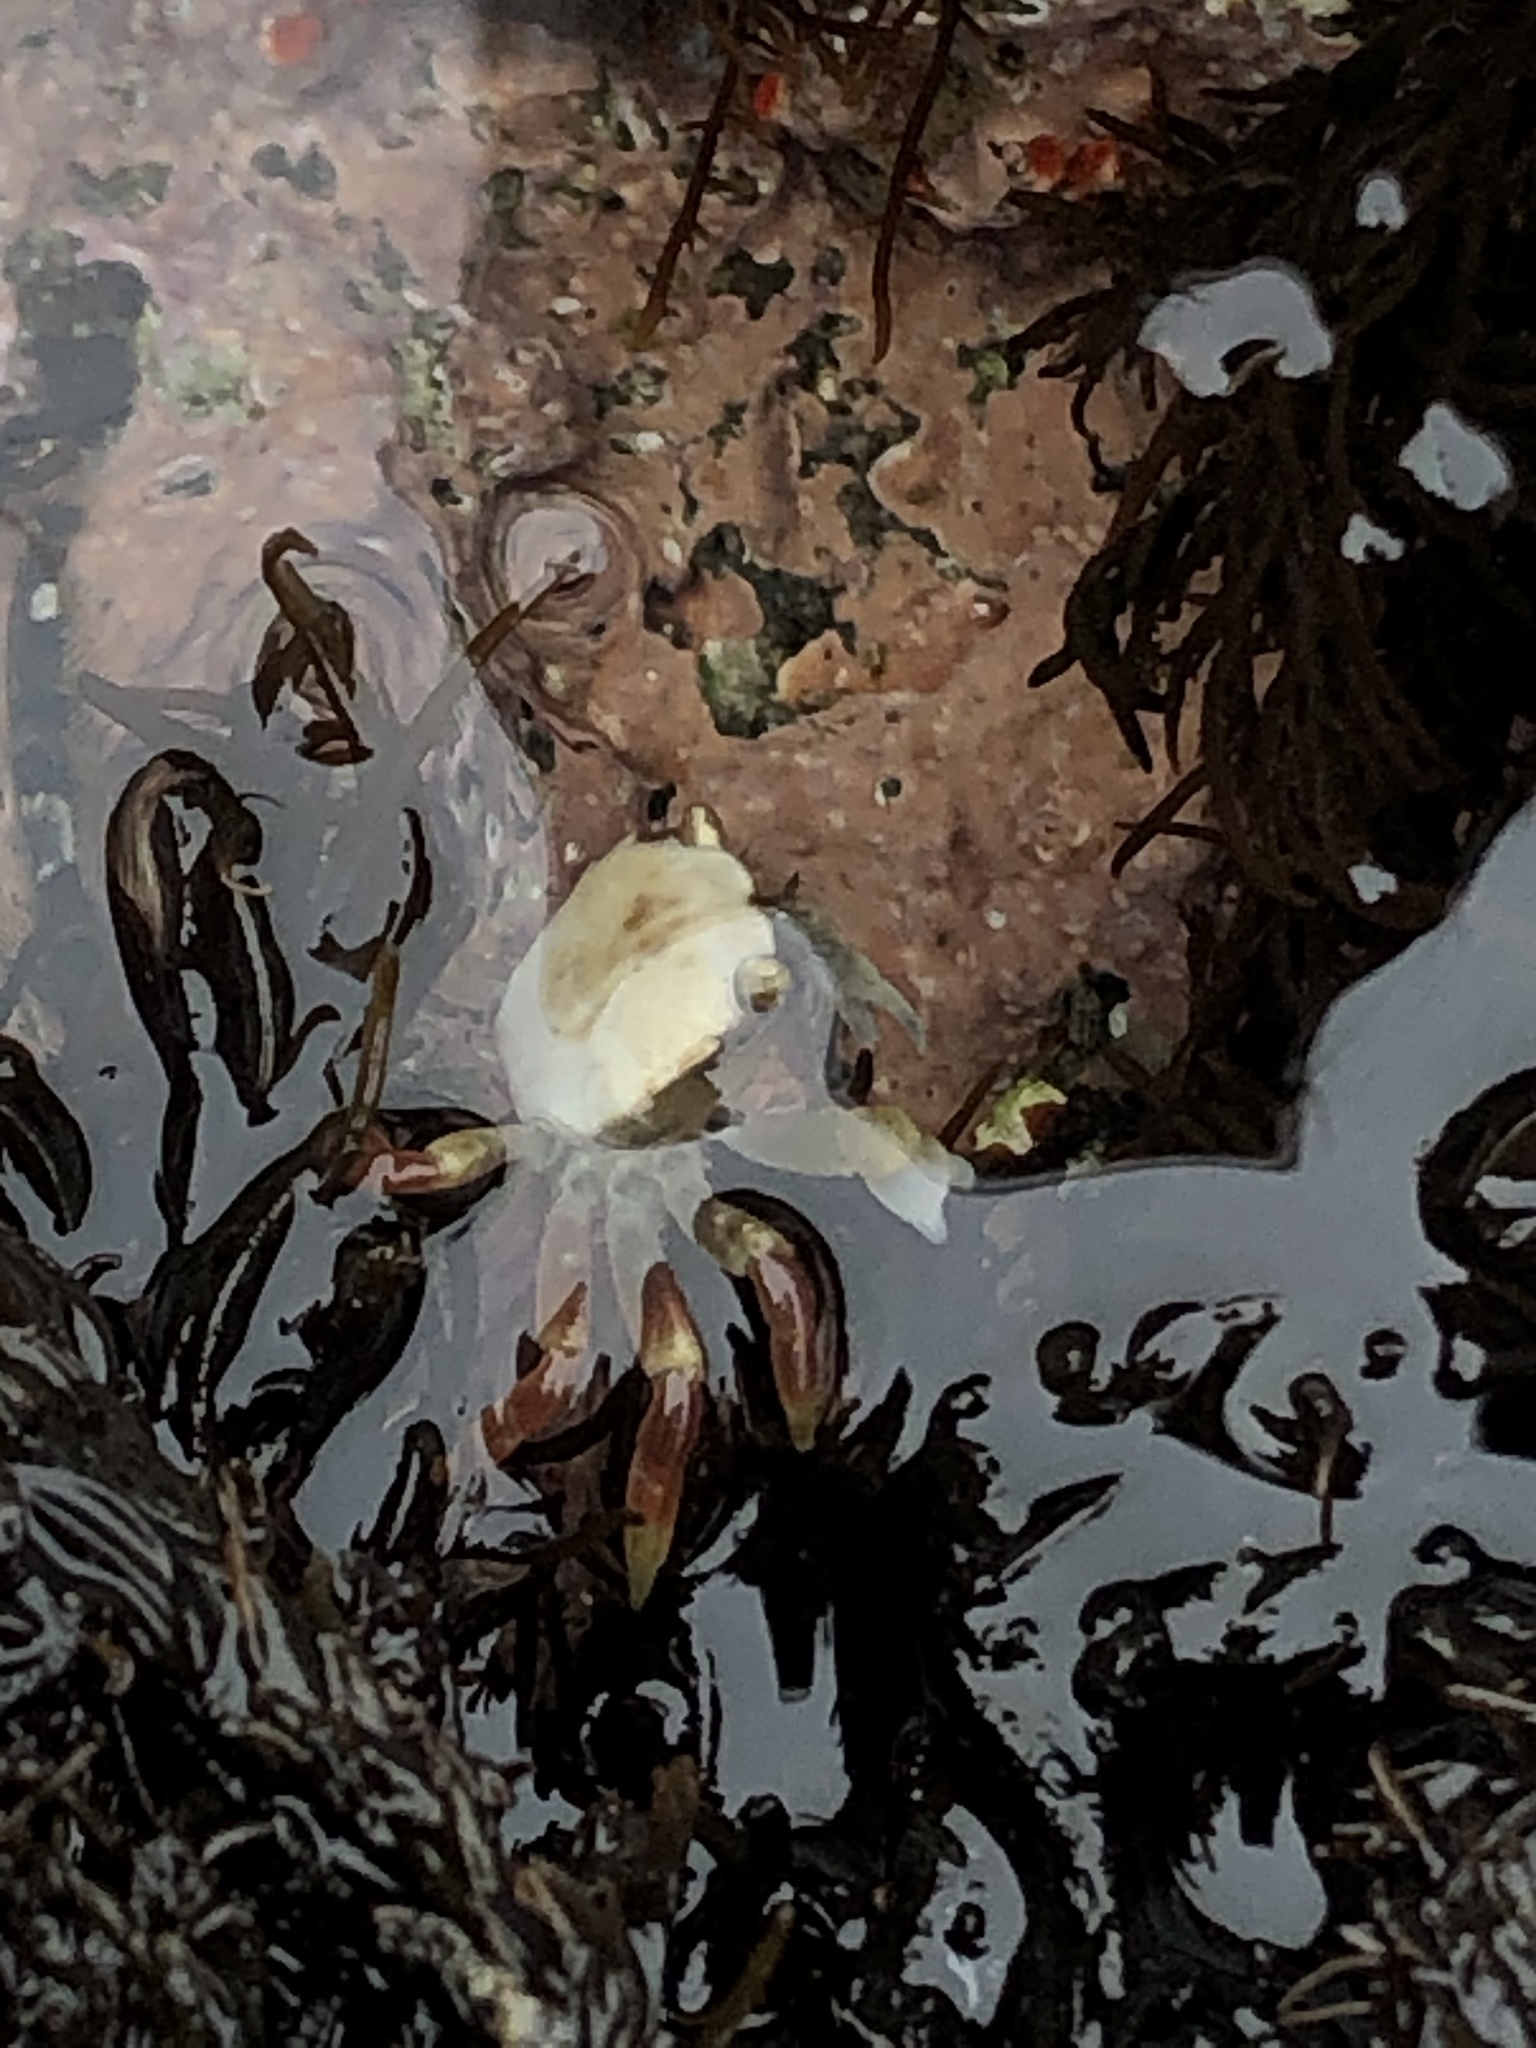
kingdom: Animalia
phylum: Arthropoda
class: Malacostraca
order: Decapoda
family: Varunidae
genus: Hemigrapsus
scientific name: Hemigrapsus nudus
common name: Purple shore crab
